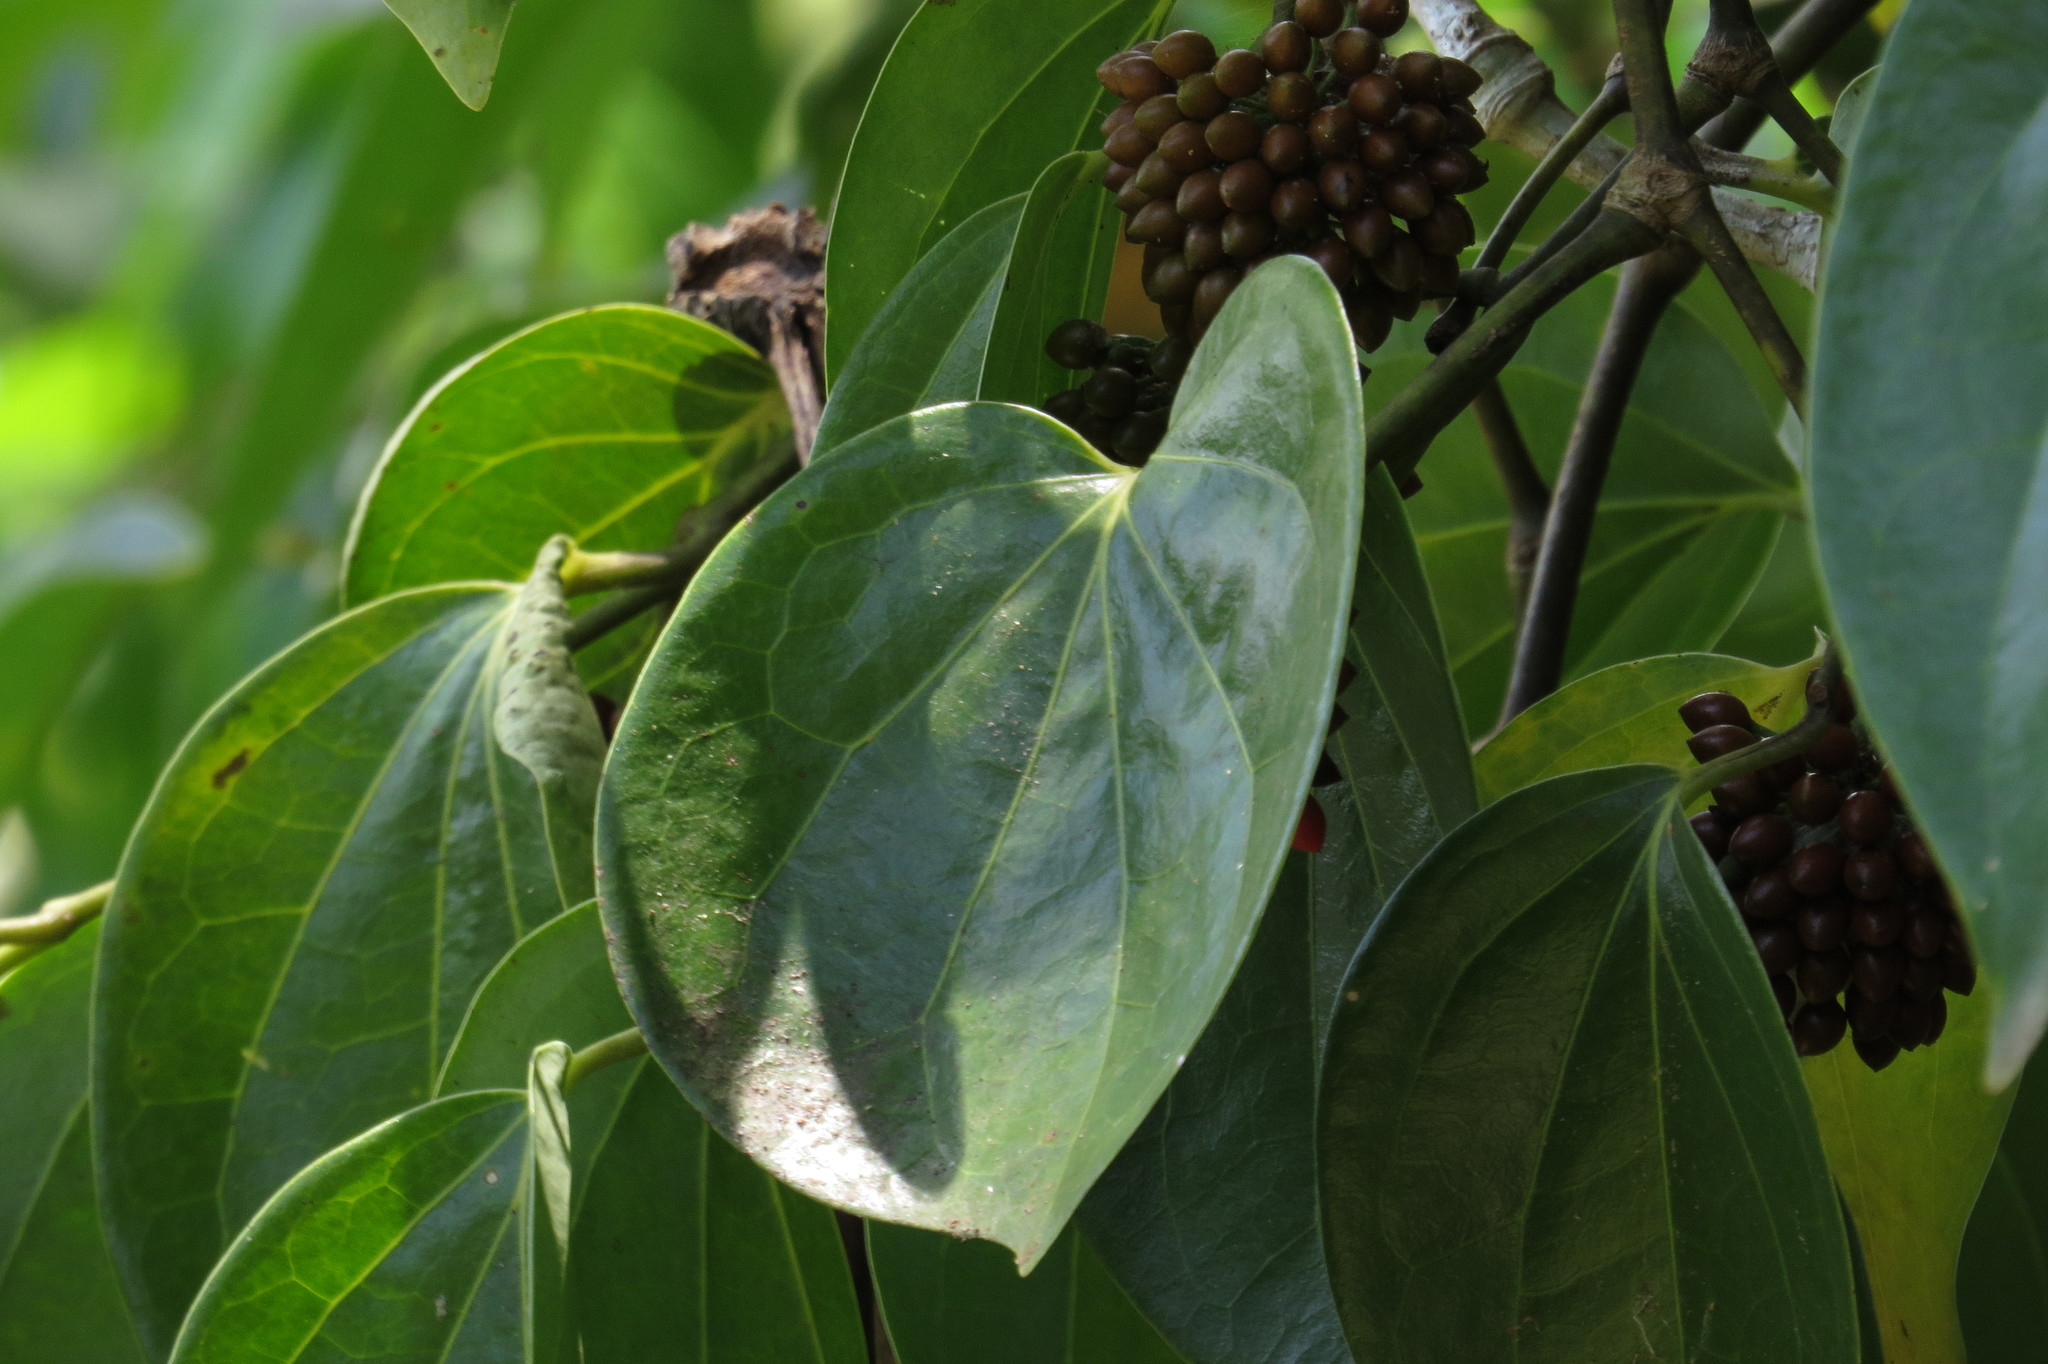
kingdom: Plantae
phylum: Tracheophyta
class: Magnoliopsida
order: Piperales
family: Piperaceae
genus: Piper
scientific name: Piper hederaceum
